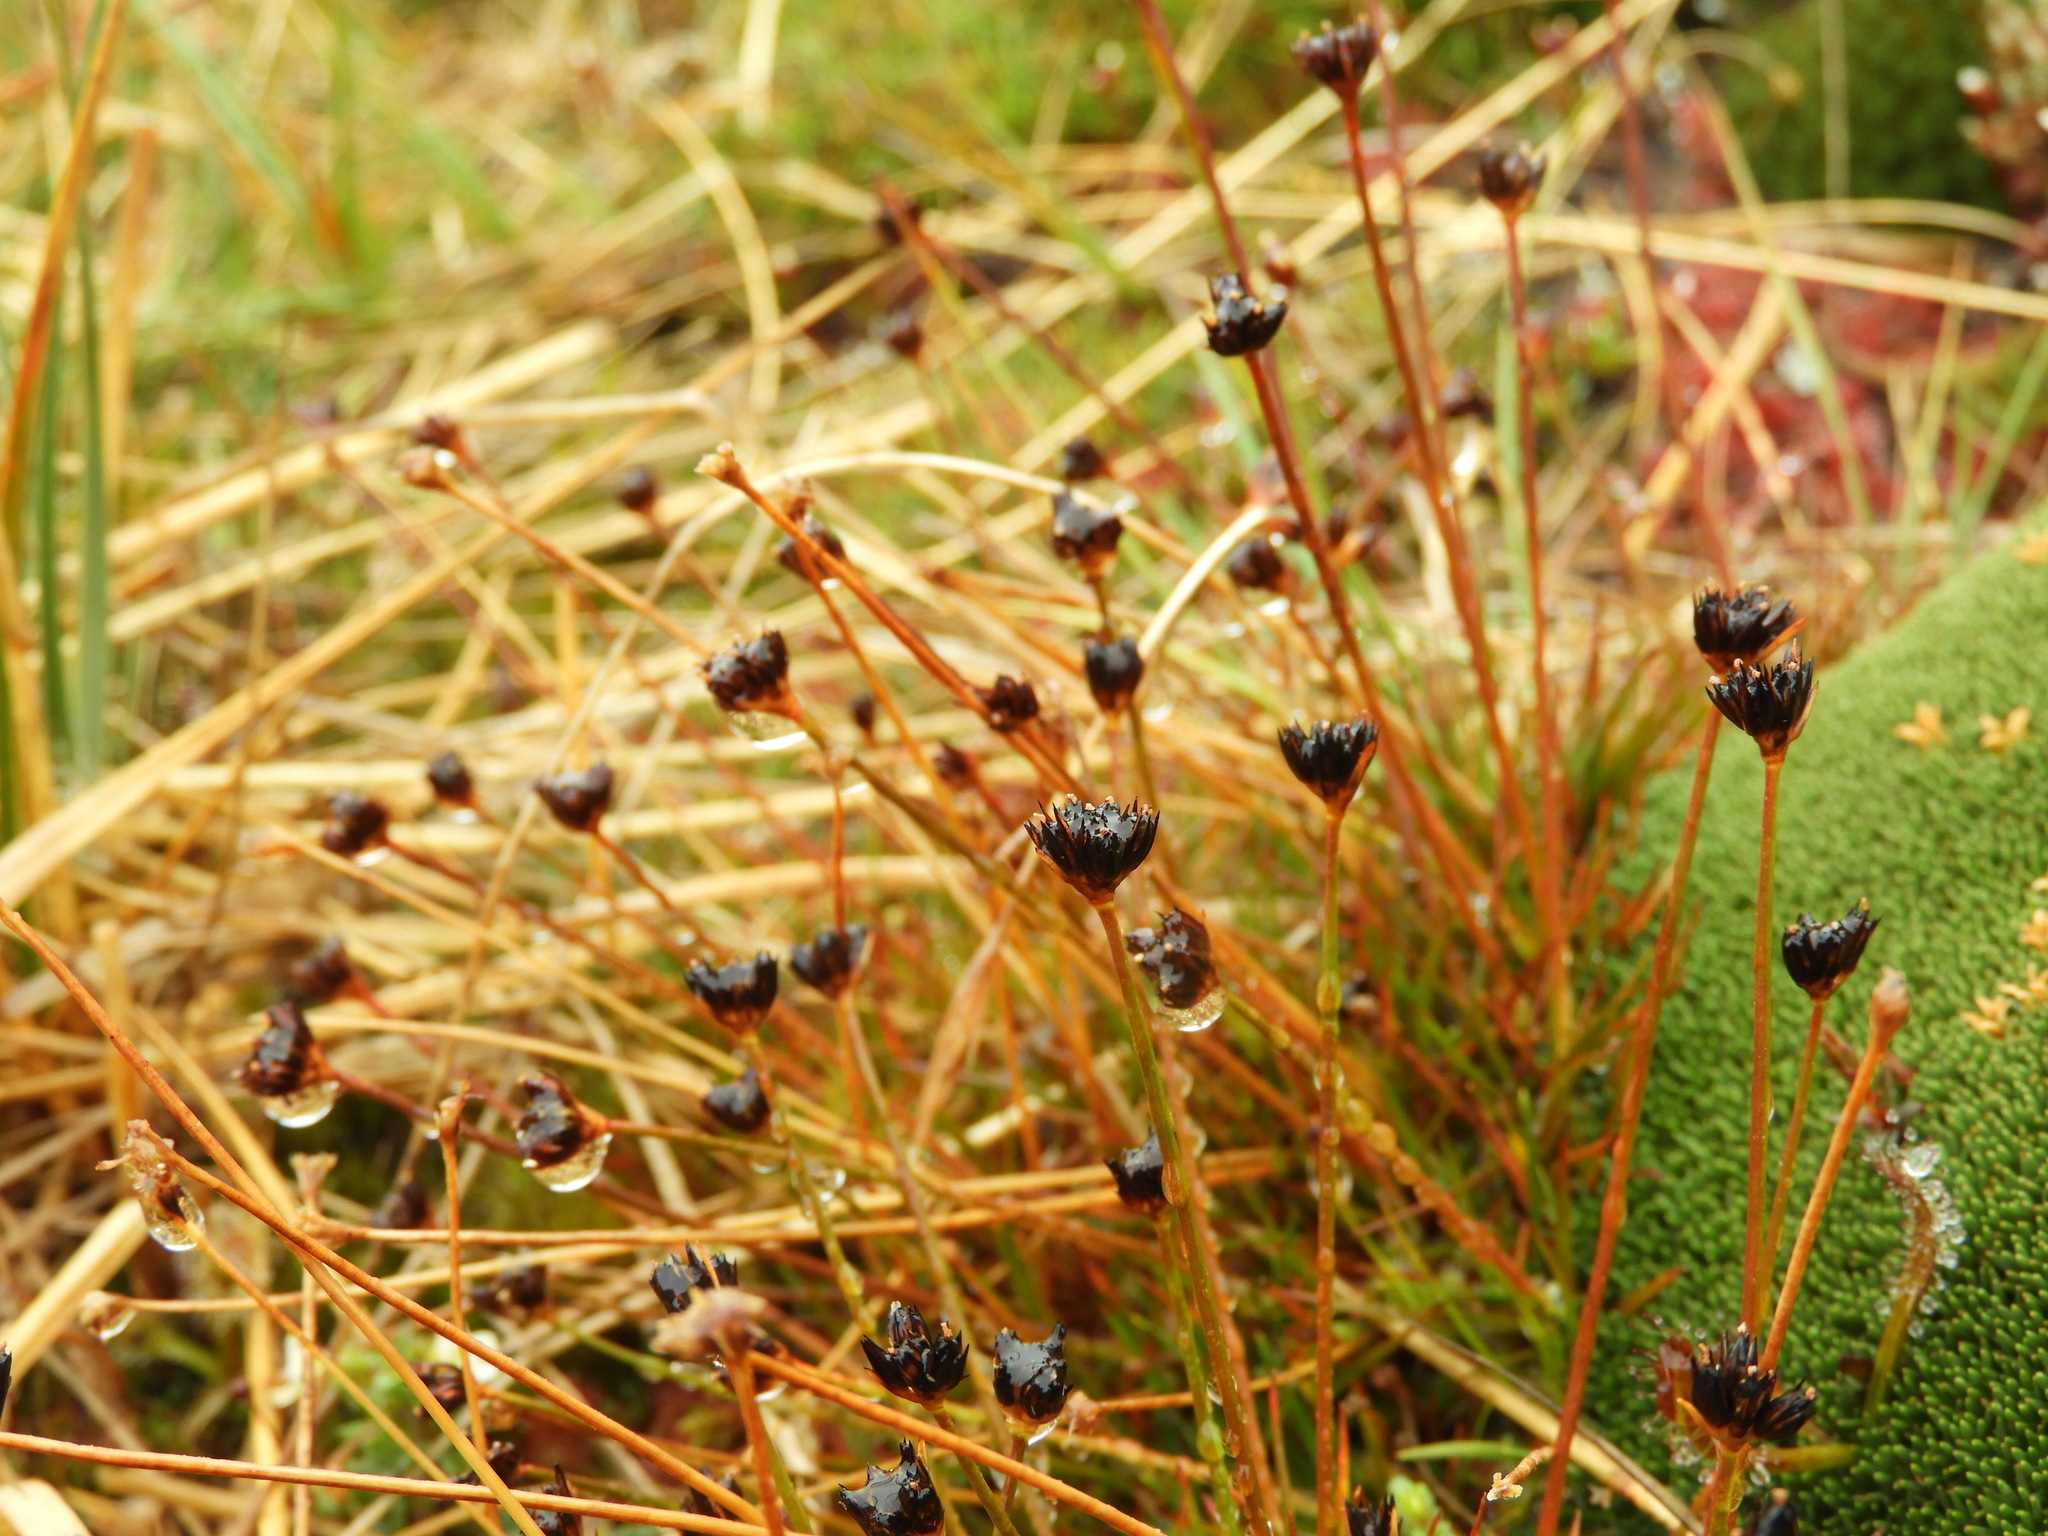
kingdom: Plantae
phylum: Tracheophyta
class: Liliopsida
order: Poales
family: Juncaceae
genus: Juncus
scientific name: Juncus novae-zelandiae
